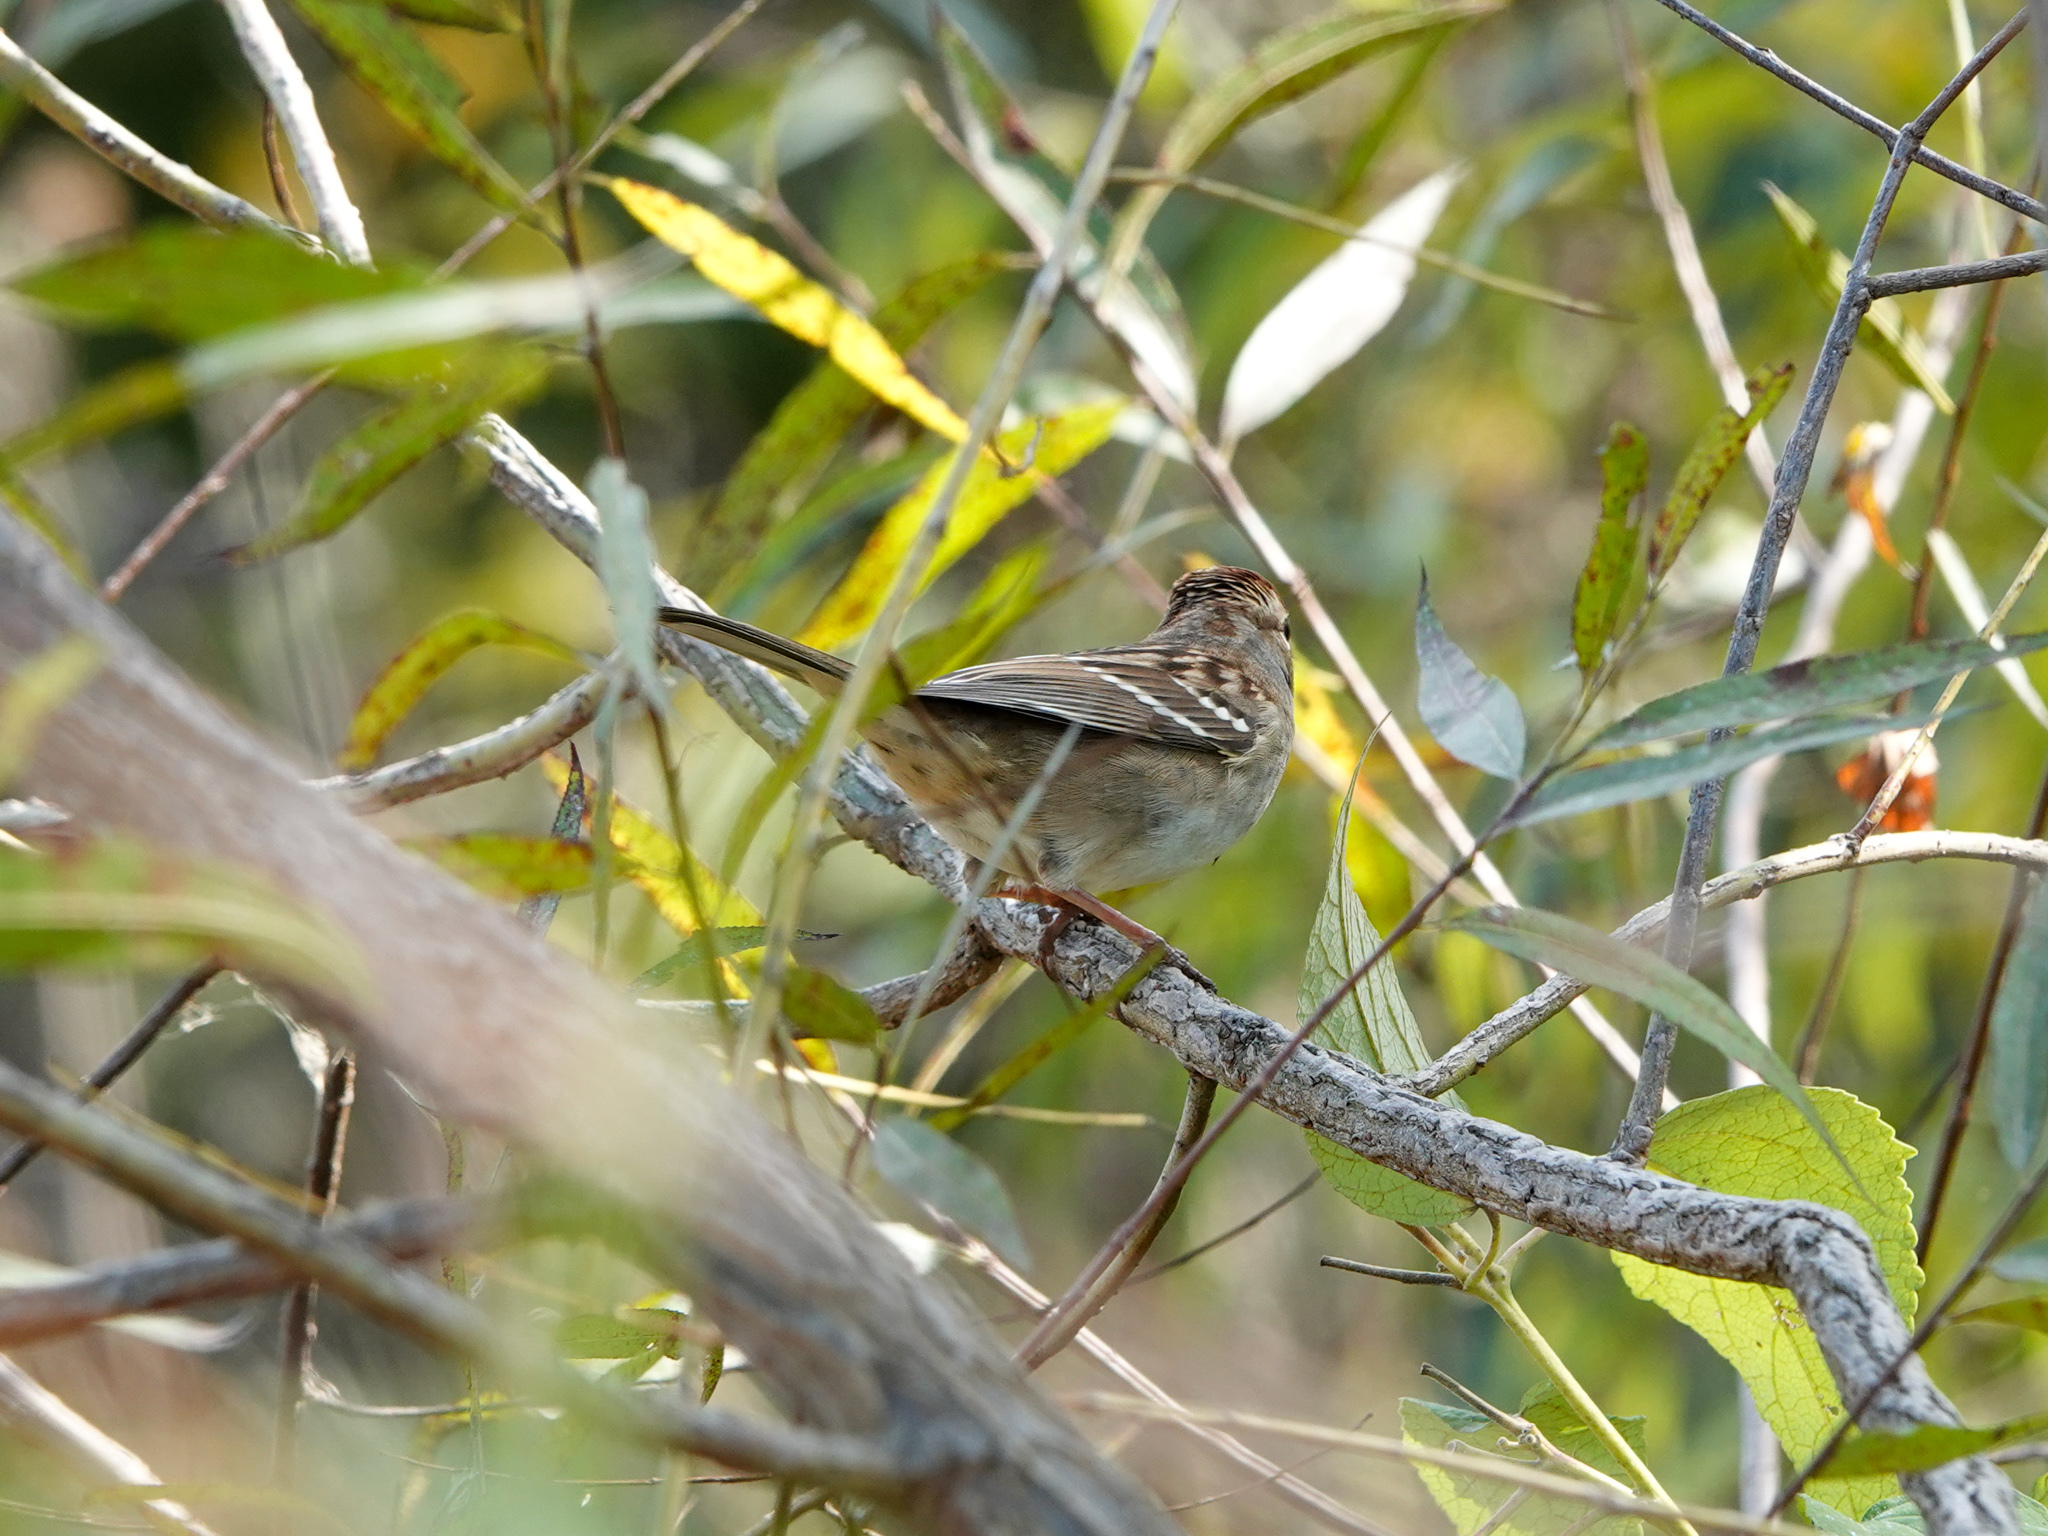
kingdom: Animalia
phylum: Chordata
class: Aves
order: Passeriformes
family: Passerellidae
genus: Zonotrichia
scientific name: Zonotrichia leucophrys
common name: White-crowned sparrow
